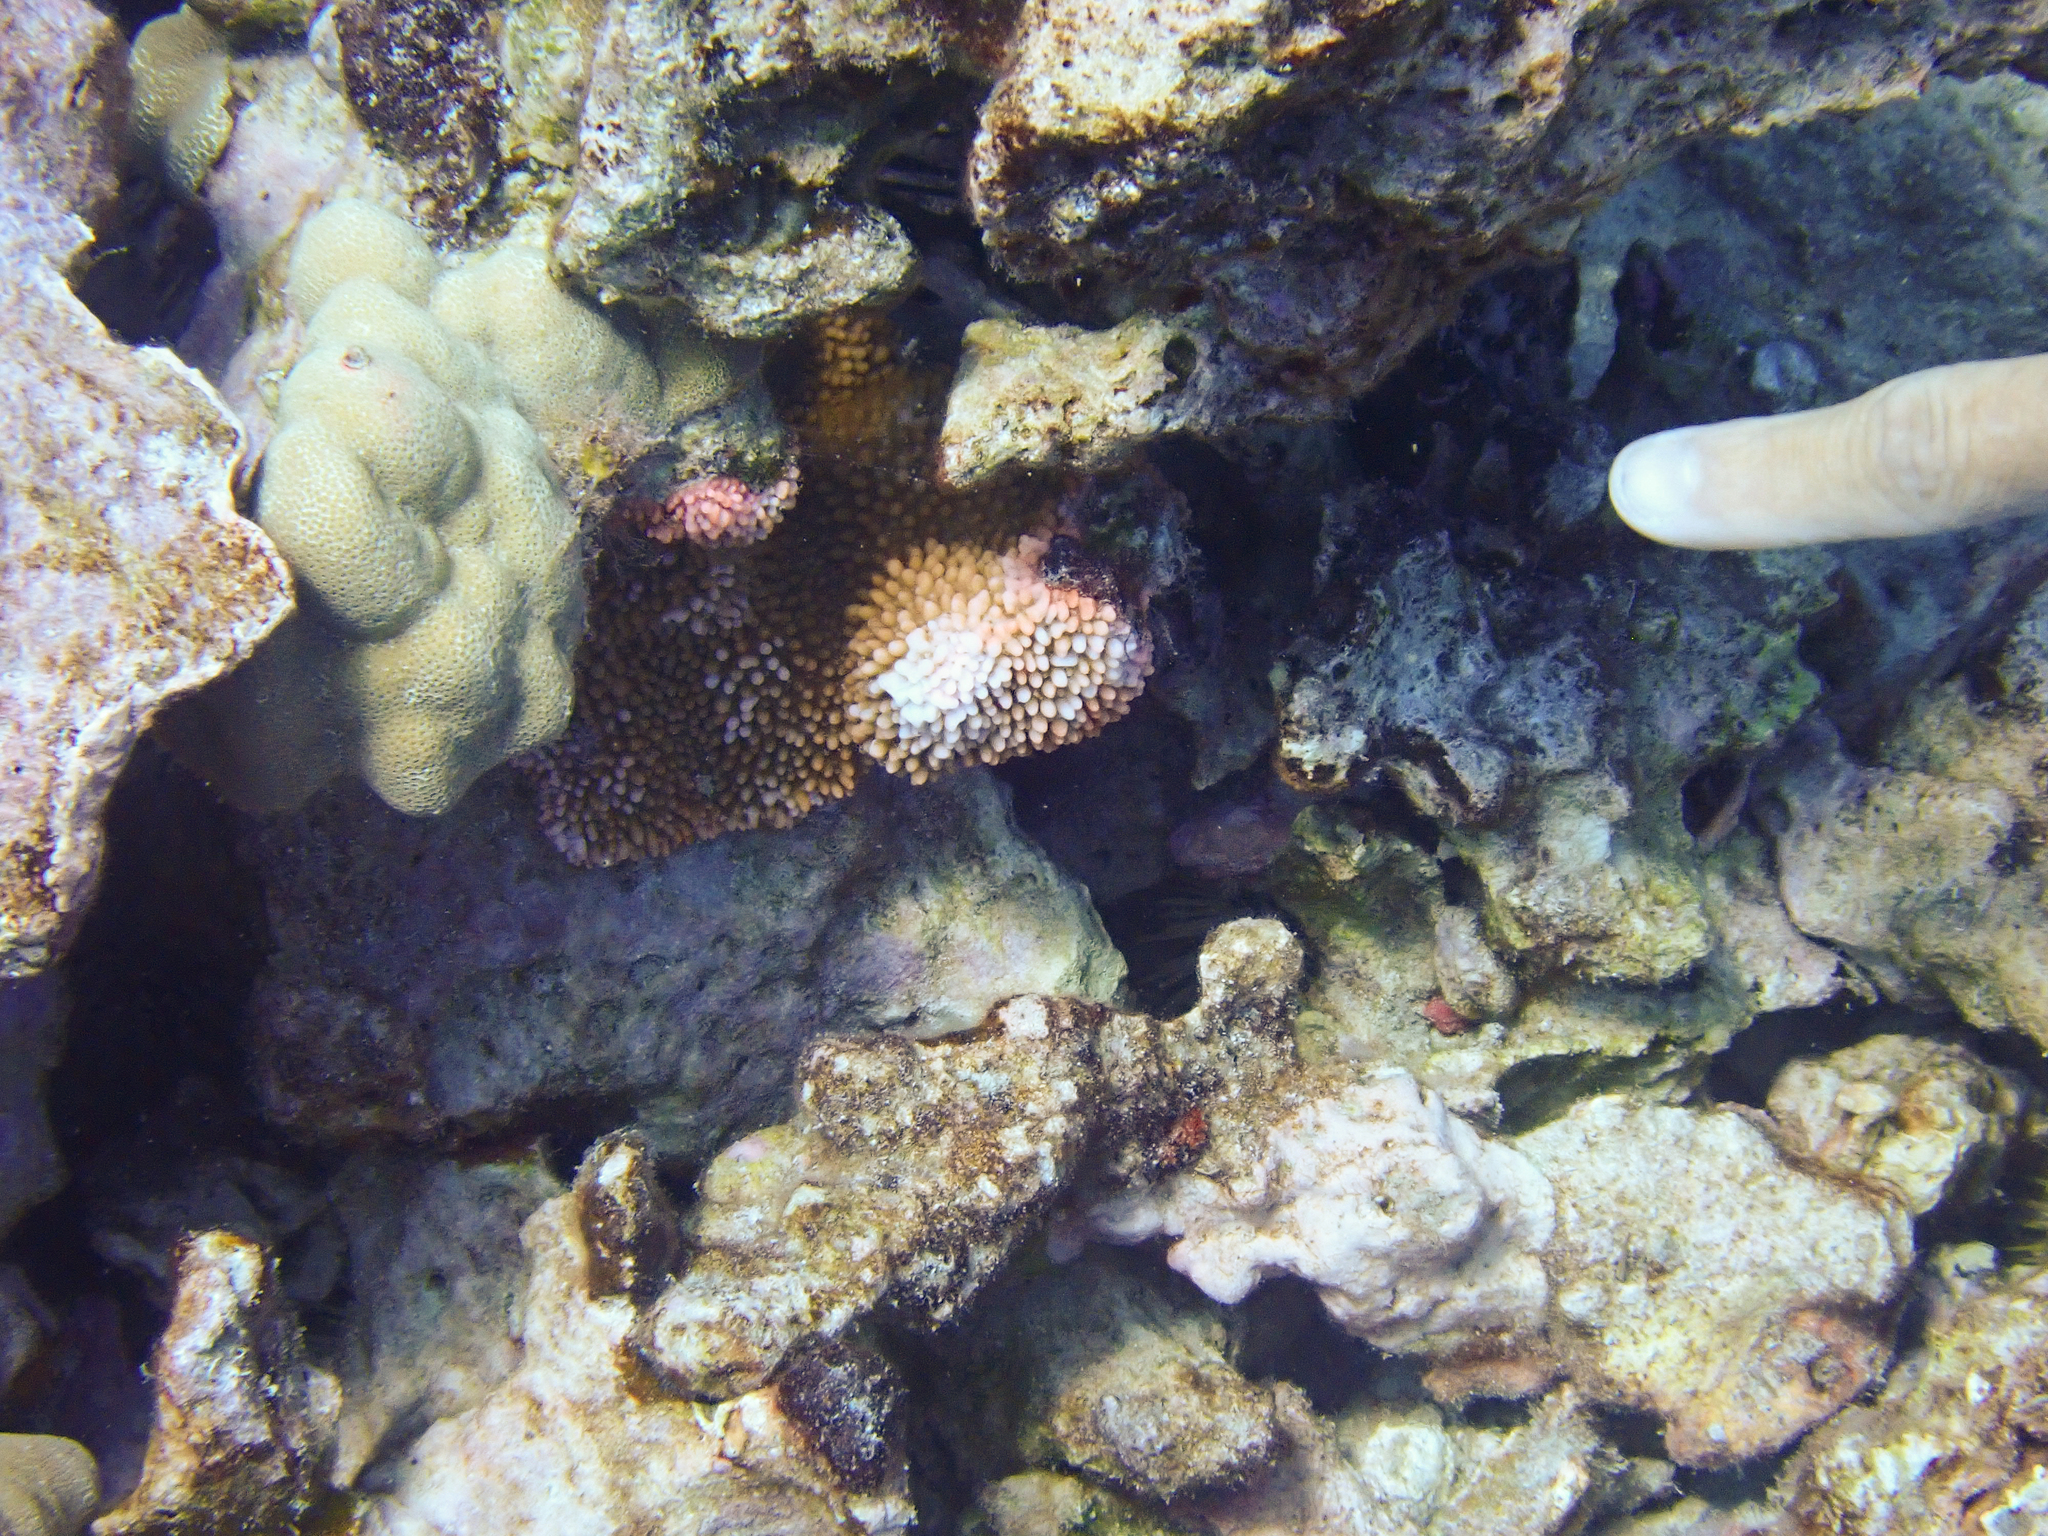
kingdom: Animalia
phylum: Cnidaria
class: Anthozoa
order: Scleractinia
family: Acroporidae
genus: Montipora
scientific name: Montipora capitata
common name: Pore coral
